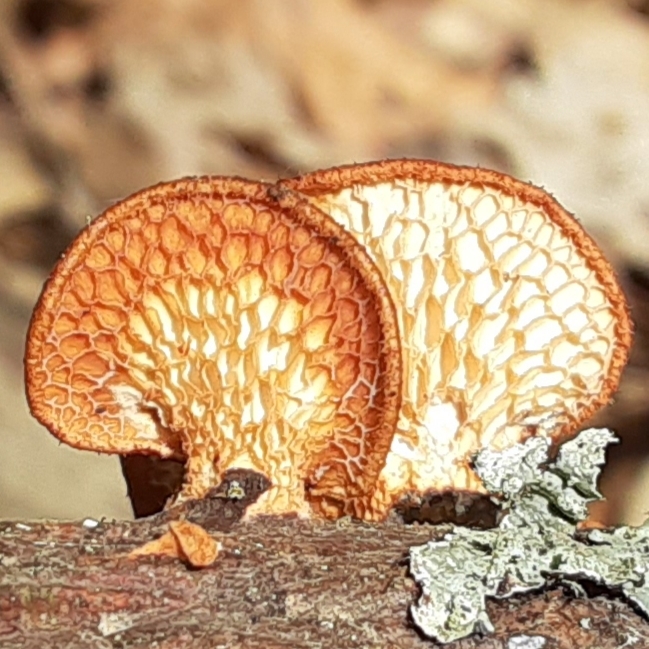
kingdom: Fungi
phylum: Basidiomycota
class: Agaricomycetes
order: Polyporales
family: Polyporaceae
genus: Neofavolus
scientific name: Neofavolus alveolaris
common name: Hexagonal-pored polypore
